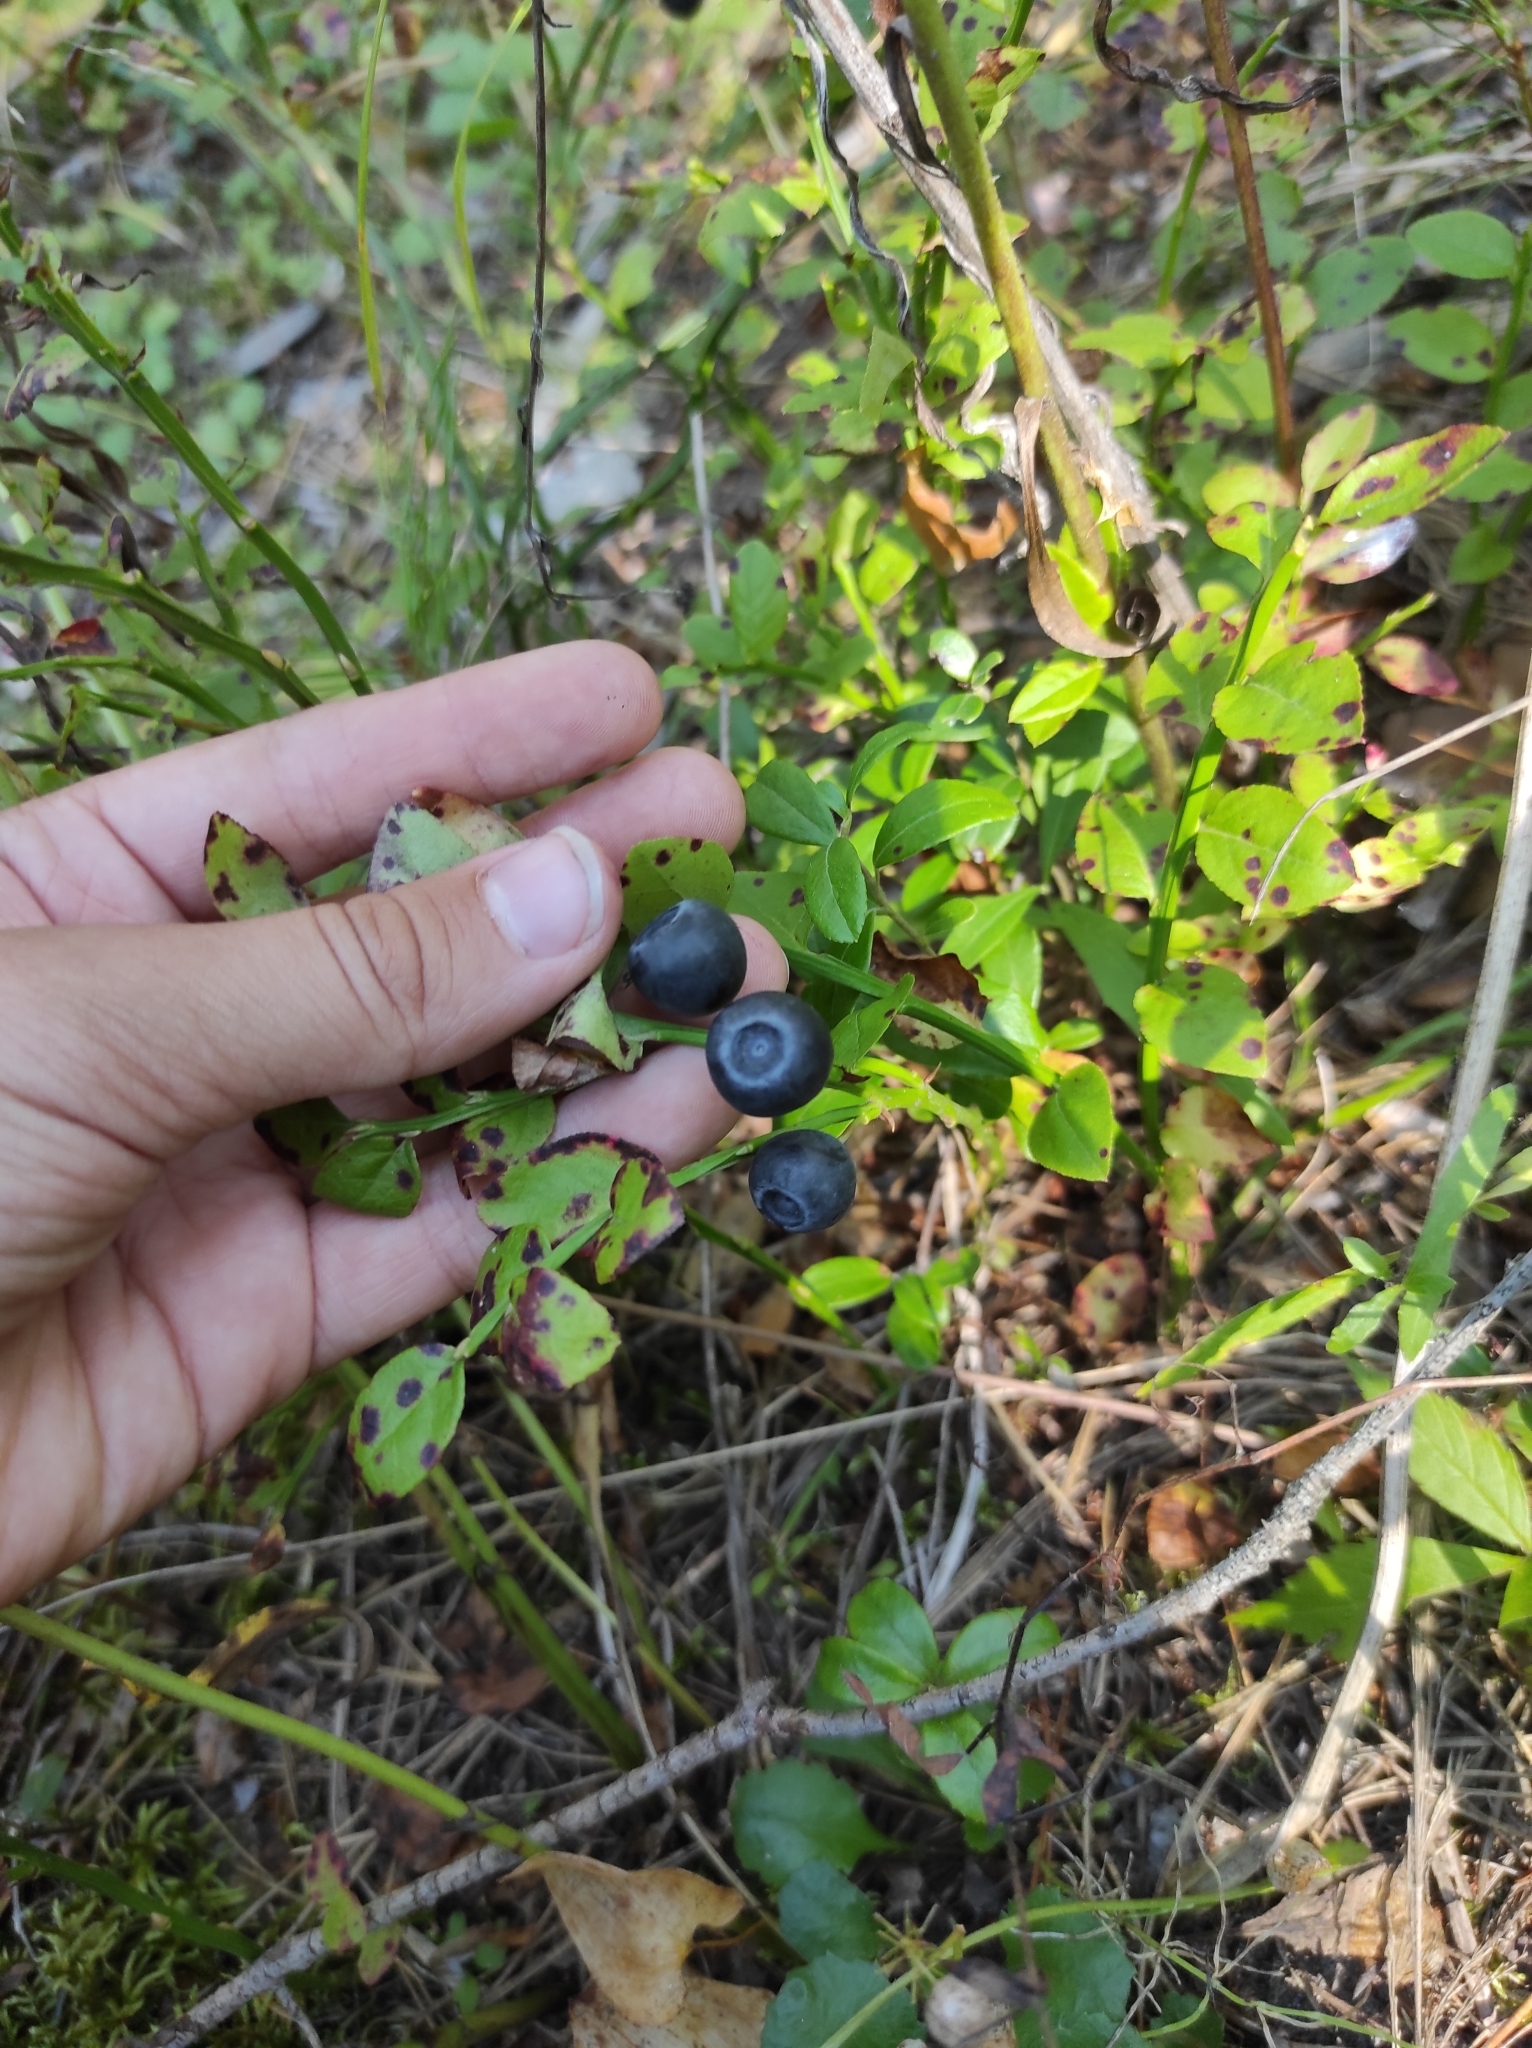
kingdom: Plantae
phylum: Tracheophyta
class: Magnoliopsida
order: Ericales
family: Ericaceae
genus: Vaccinium
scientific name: Vaccinium myrtillus
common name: Bilberry
